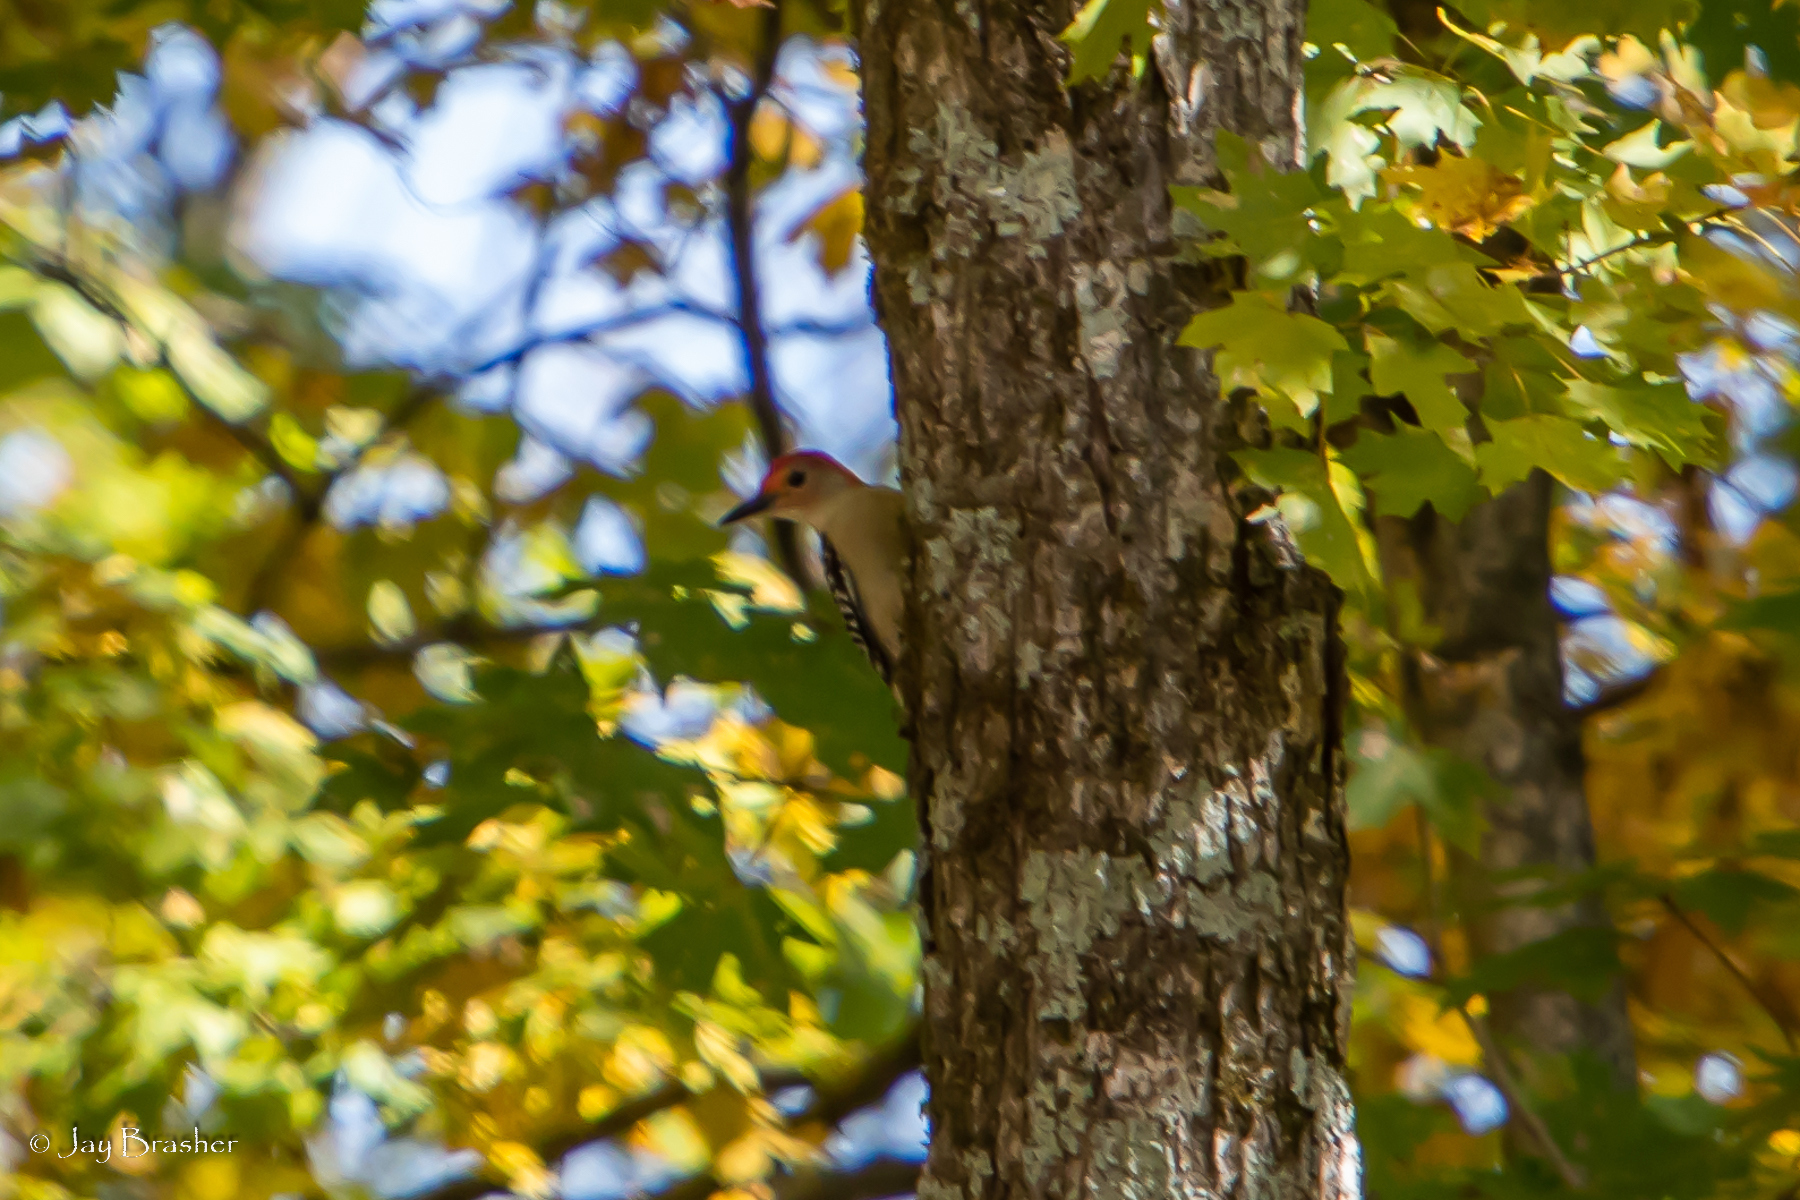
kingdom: Animalia
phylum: Chordata
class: Aves
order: Piciformes
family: Picidae
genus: Melanerpes
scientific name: Melanerpes carolinus
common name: Red-bellied woodpecker
